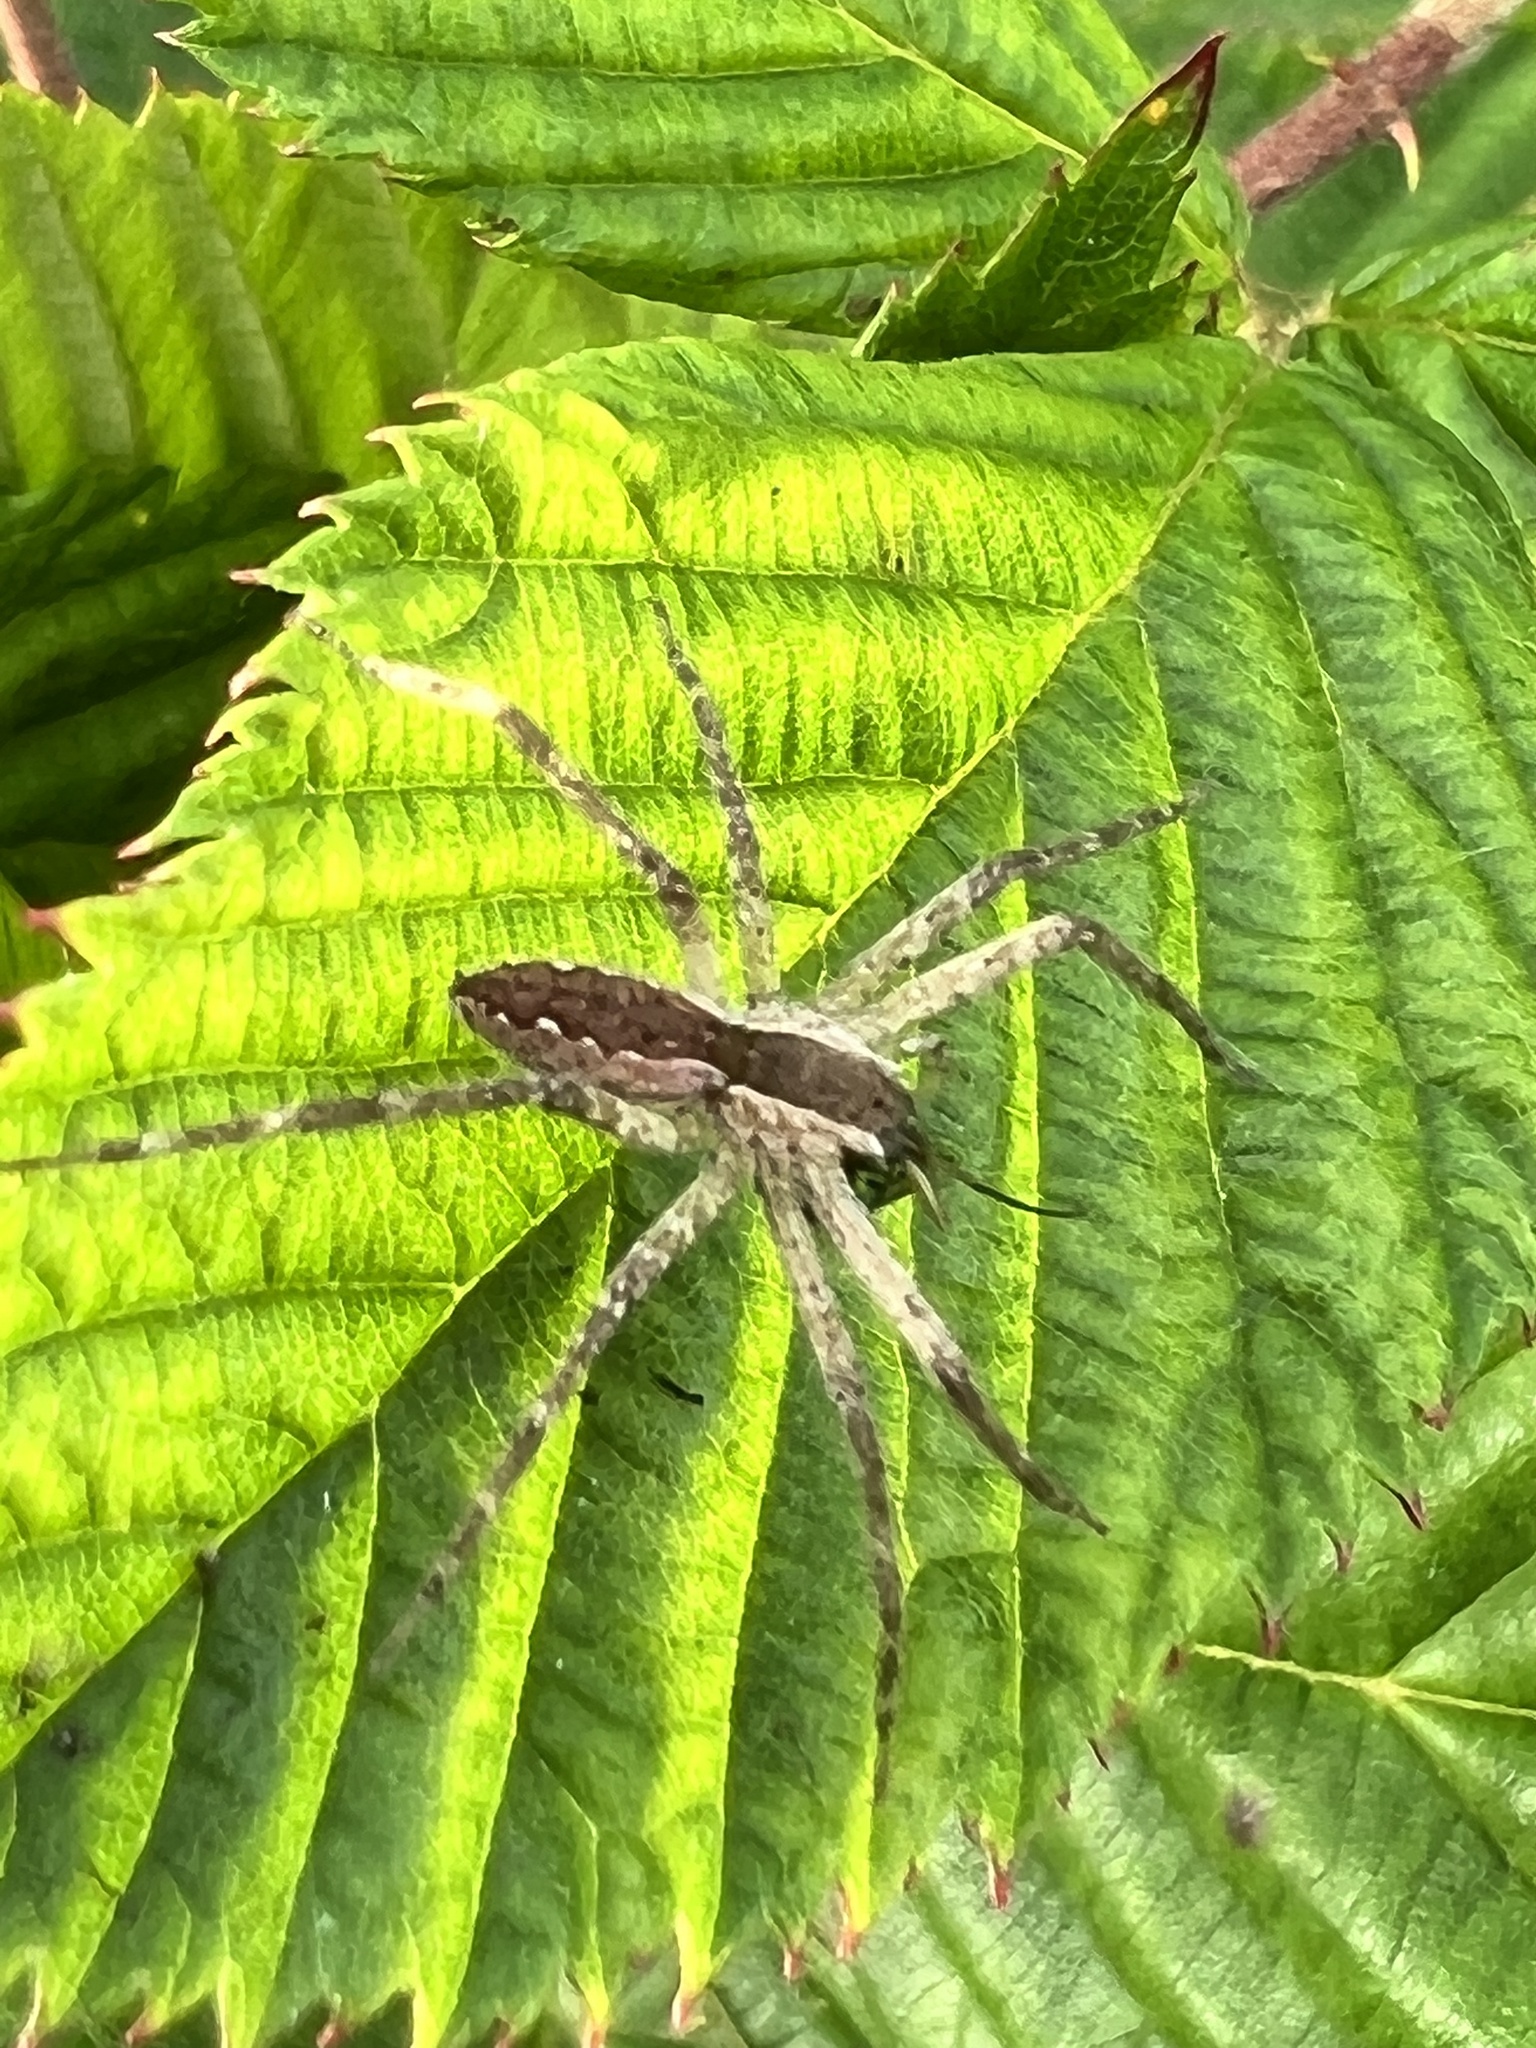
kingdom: Animalia
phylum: Arthropoda
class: Arachnida
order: Araneae
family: Pisauridae
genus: Pisaurina
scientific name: Pisaurina mira
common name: American nursery web spider
